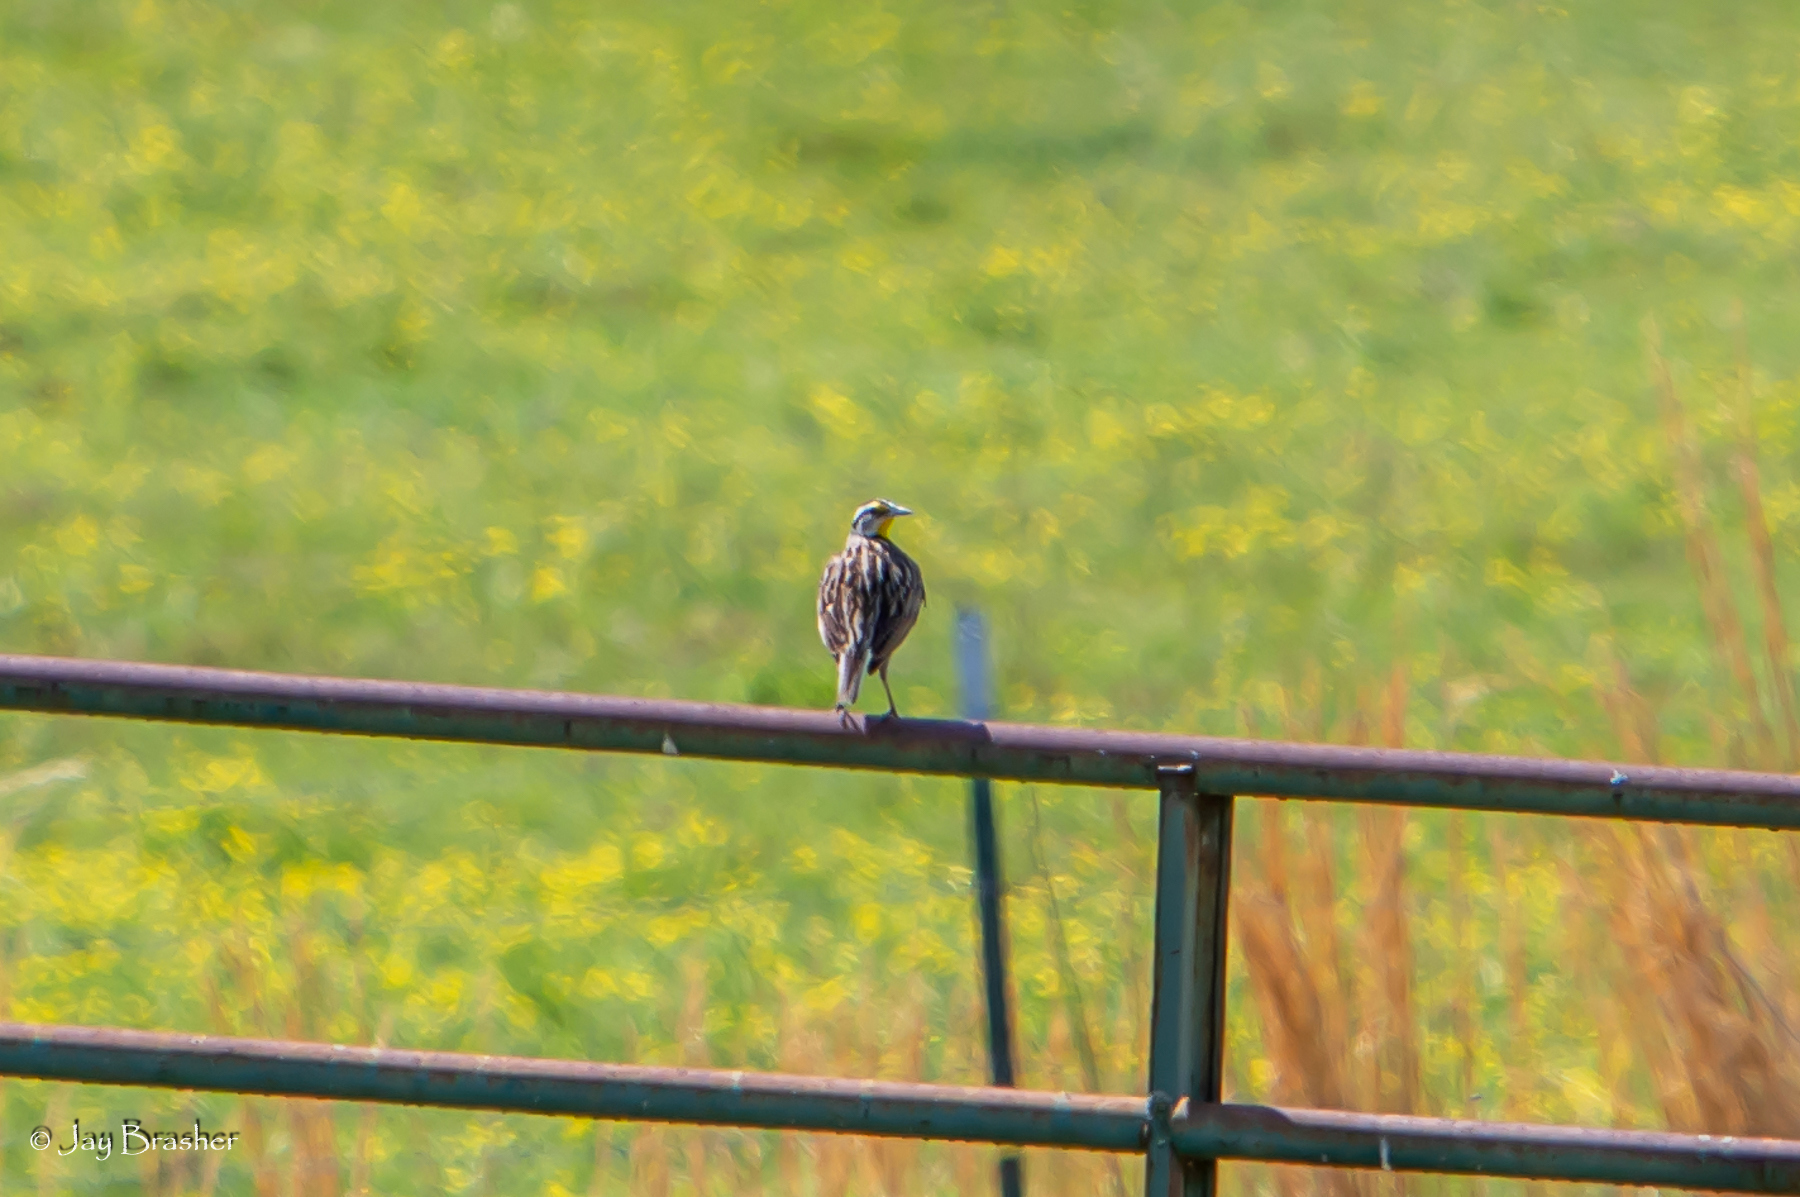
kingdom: Animalia
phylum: Chordata
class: Aves
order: Passeriformes
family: Icteridae
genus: Sturnella
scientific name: Sturnella magna
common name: Eastern meadowlark
